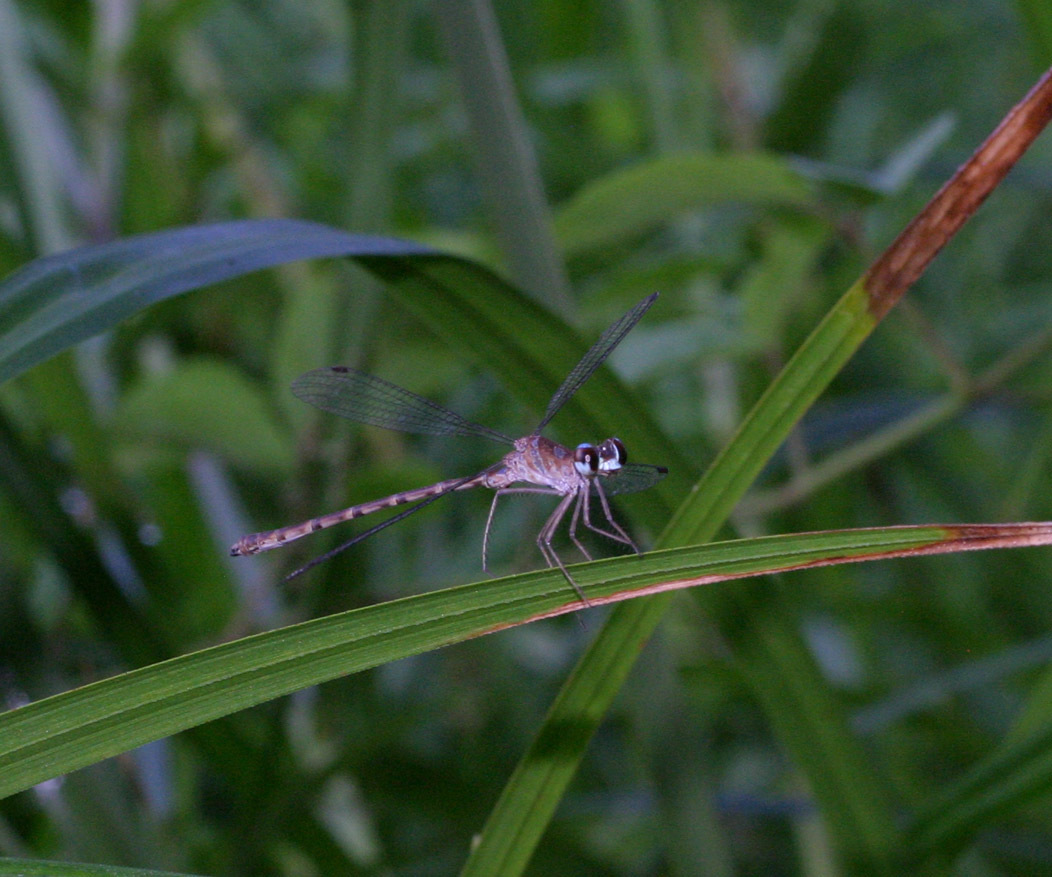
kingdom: Animalia
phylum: Arthropoda
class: Insecta
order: Odonata
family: Argiolestidae
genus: Podolestes
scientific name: Podolestes coomansi
